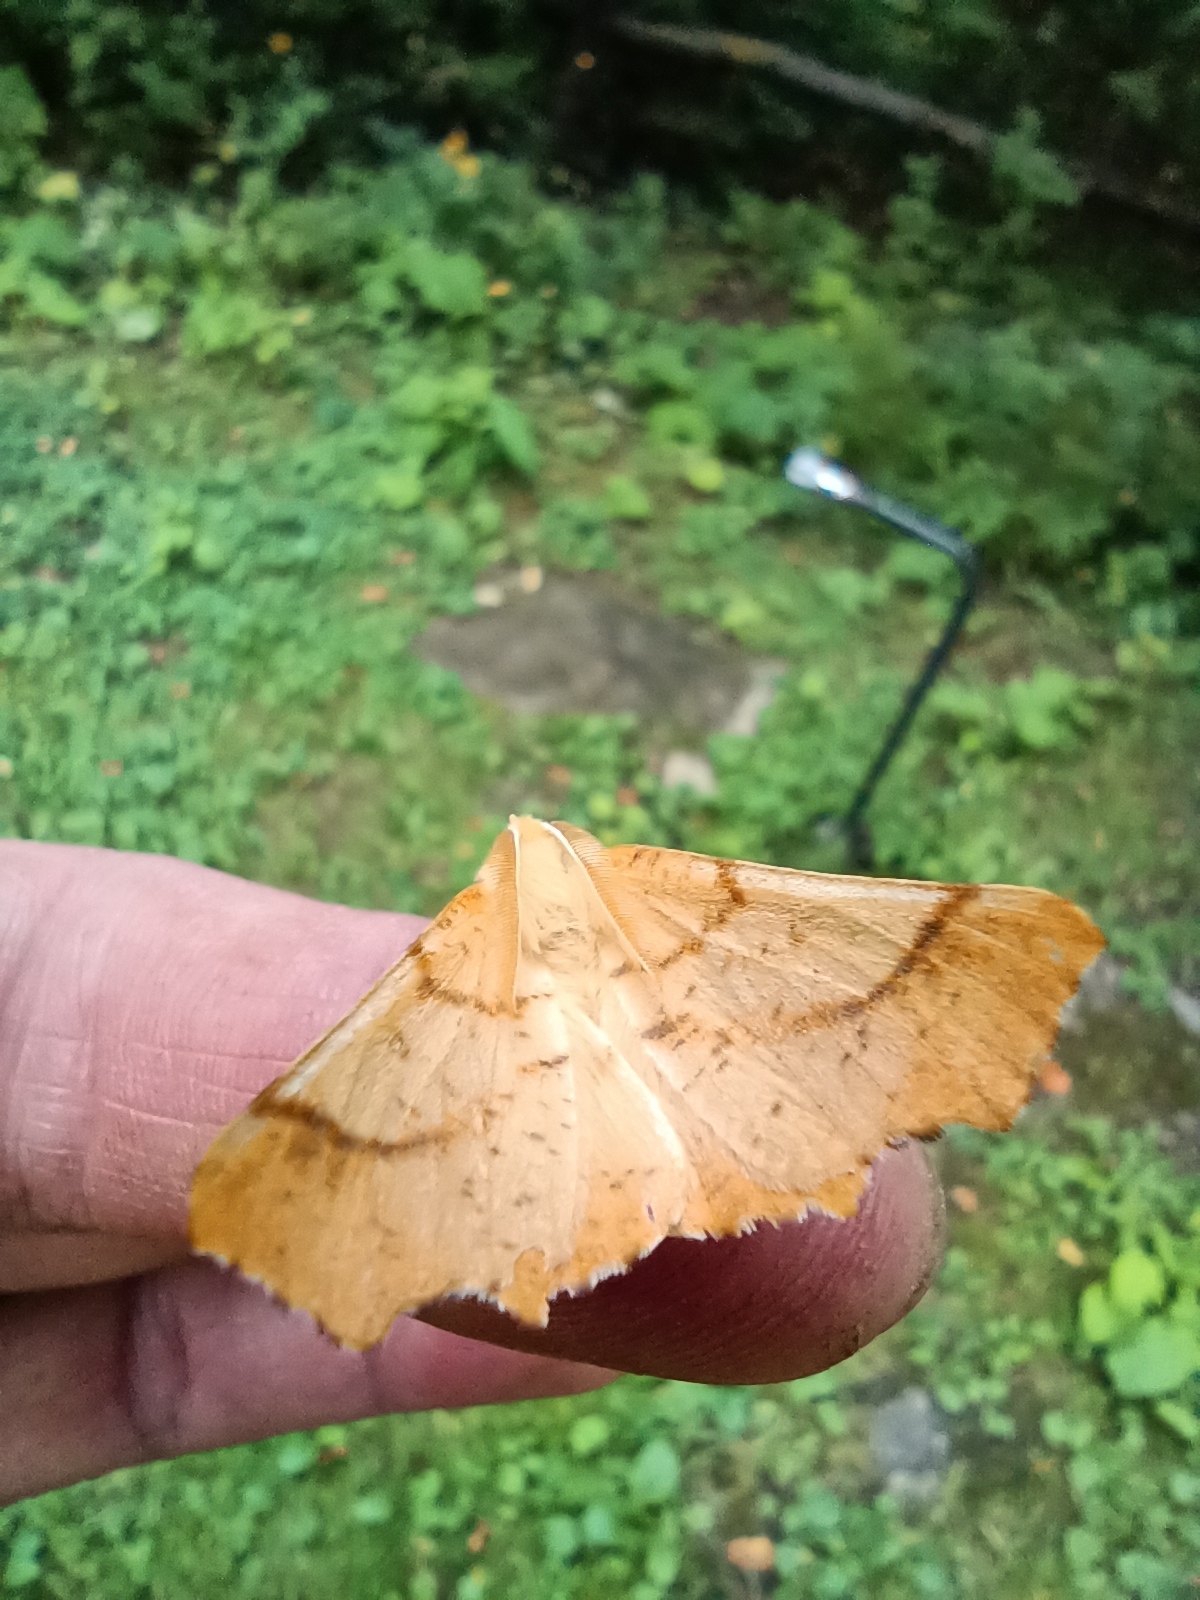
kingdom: Animalia
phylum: Arthropoda
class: Insecta
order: Lepidoptera
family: Geometridae
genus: Ennomos
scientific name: Ennomos autumnaria
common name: Large thorn
